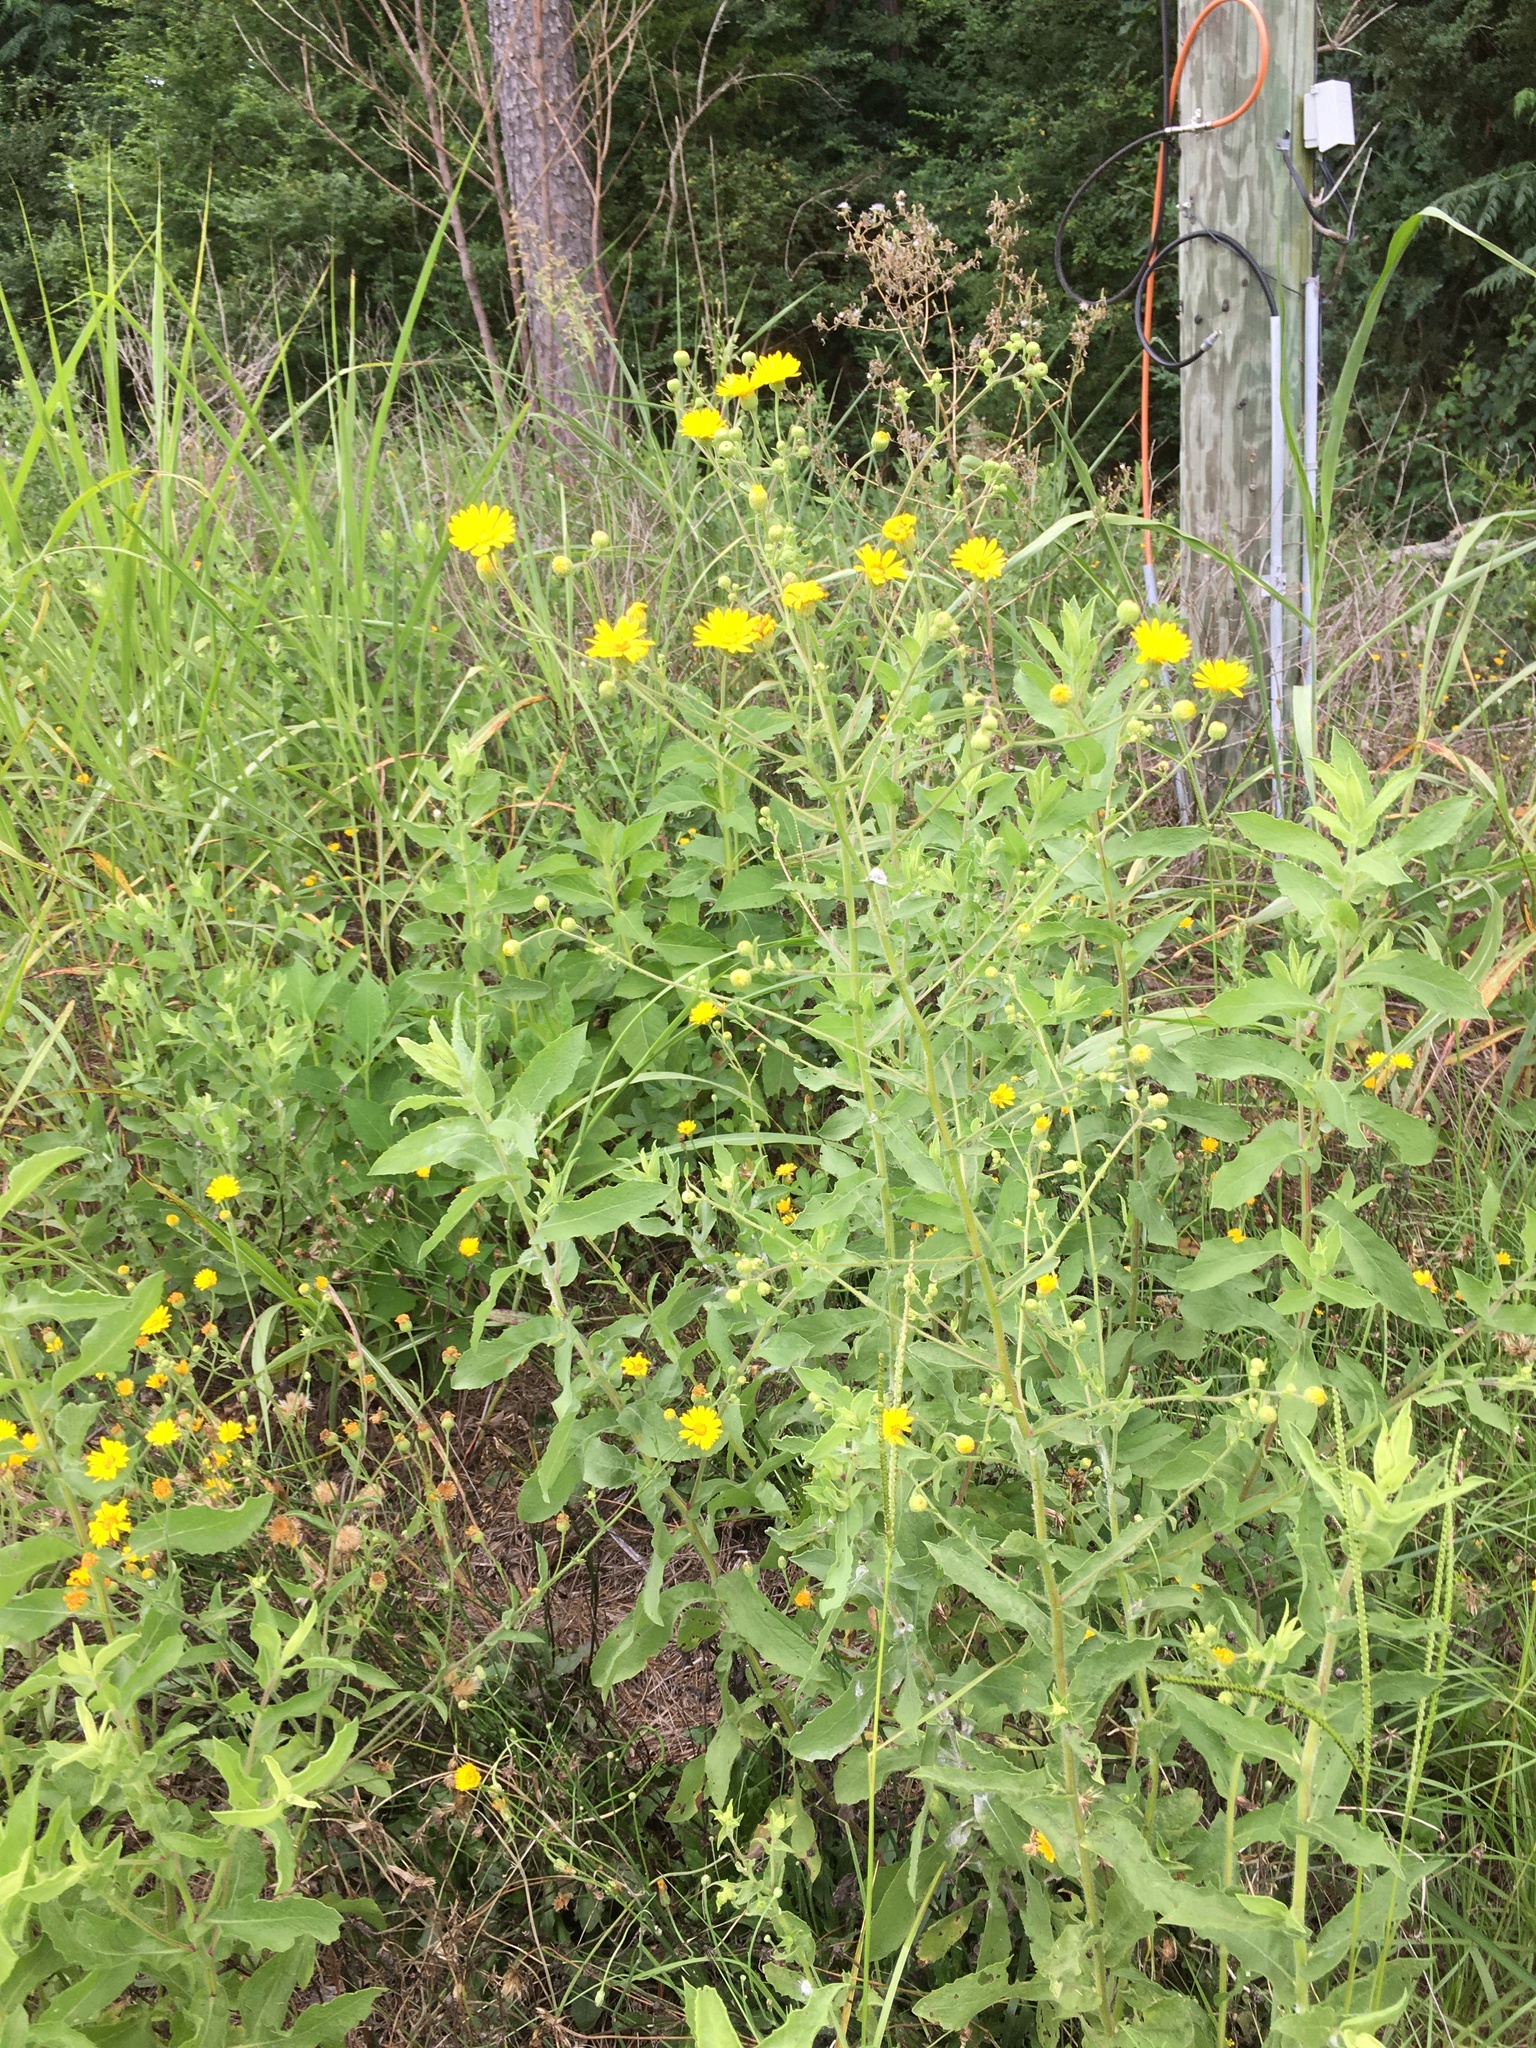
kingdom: Plantae
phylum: Tracheophyta
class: Magnoliopsida
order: Asterales
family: Asteraceae
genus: Heterotheca
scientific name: Heterotheca subaxillaris
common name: Camphorweed
